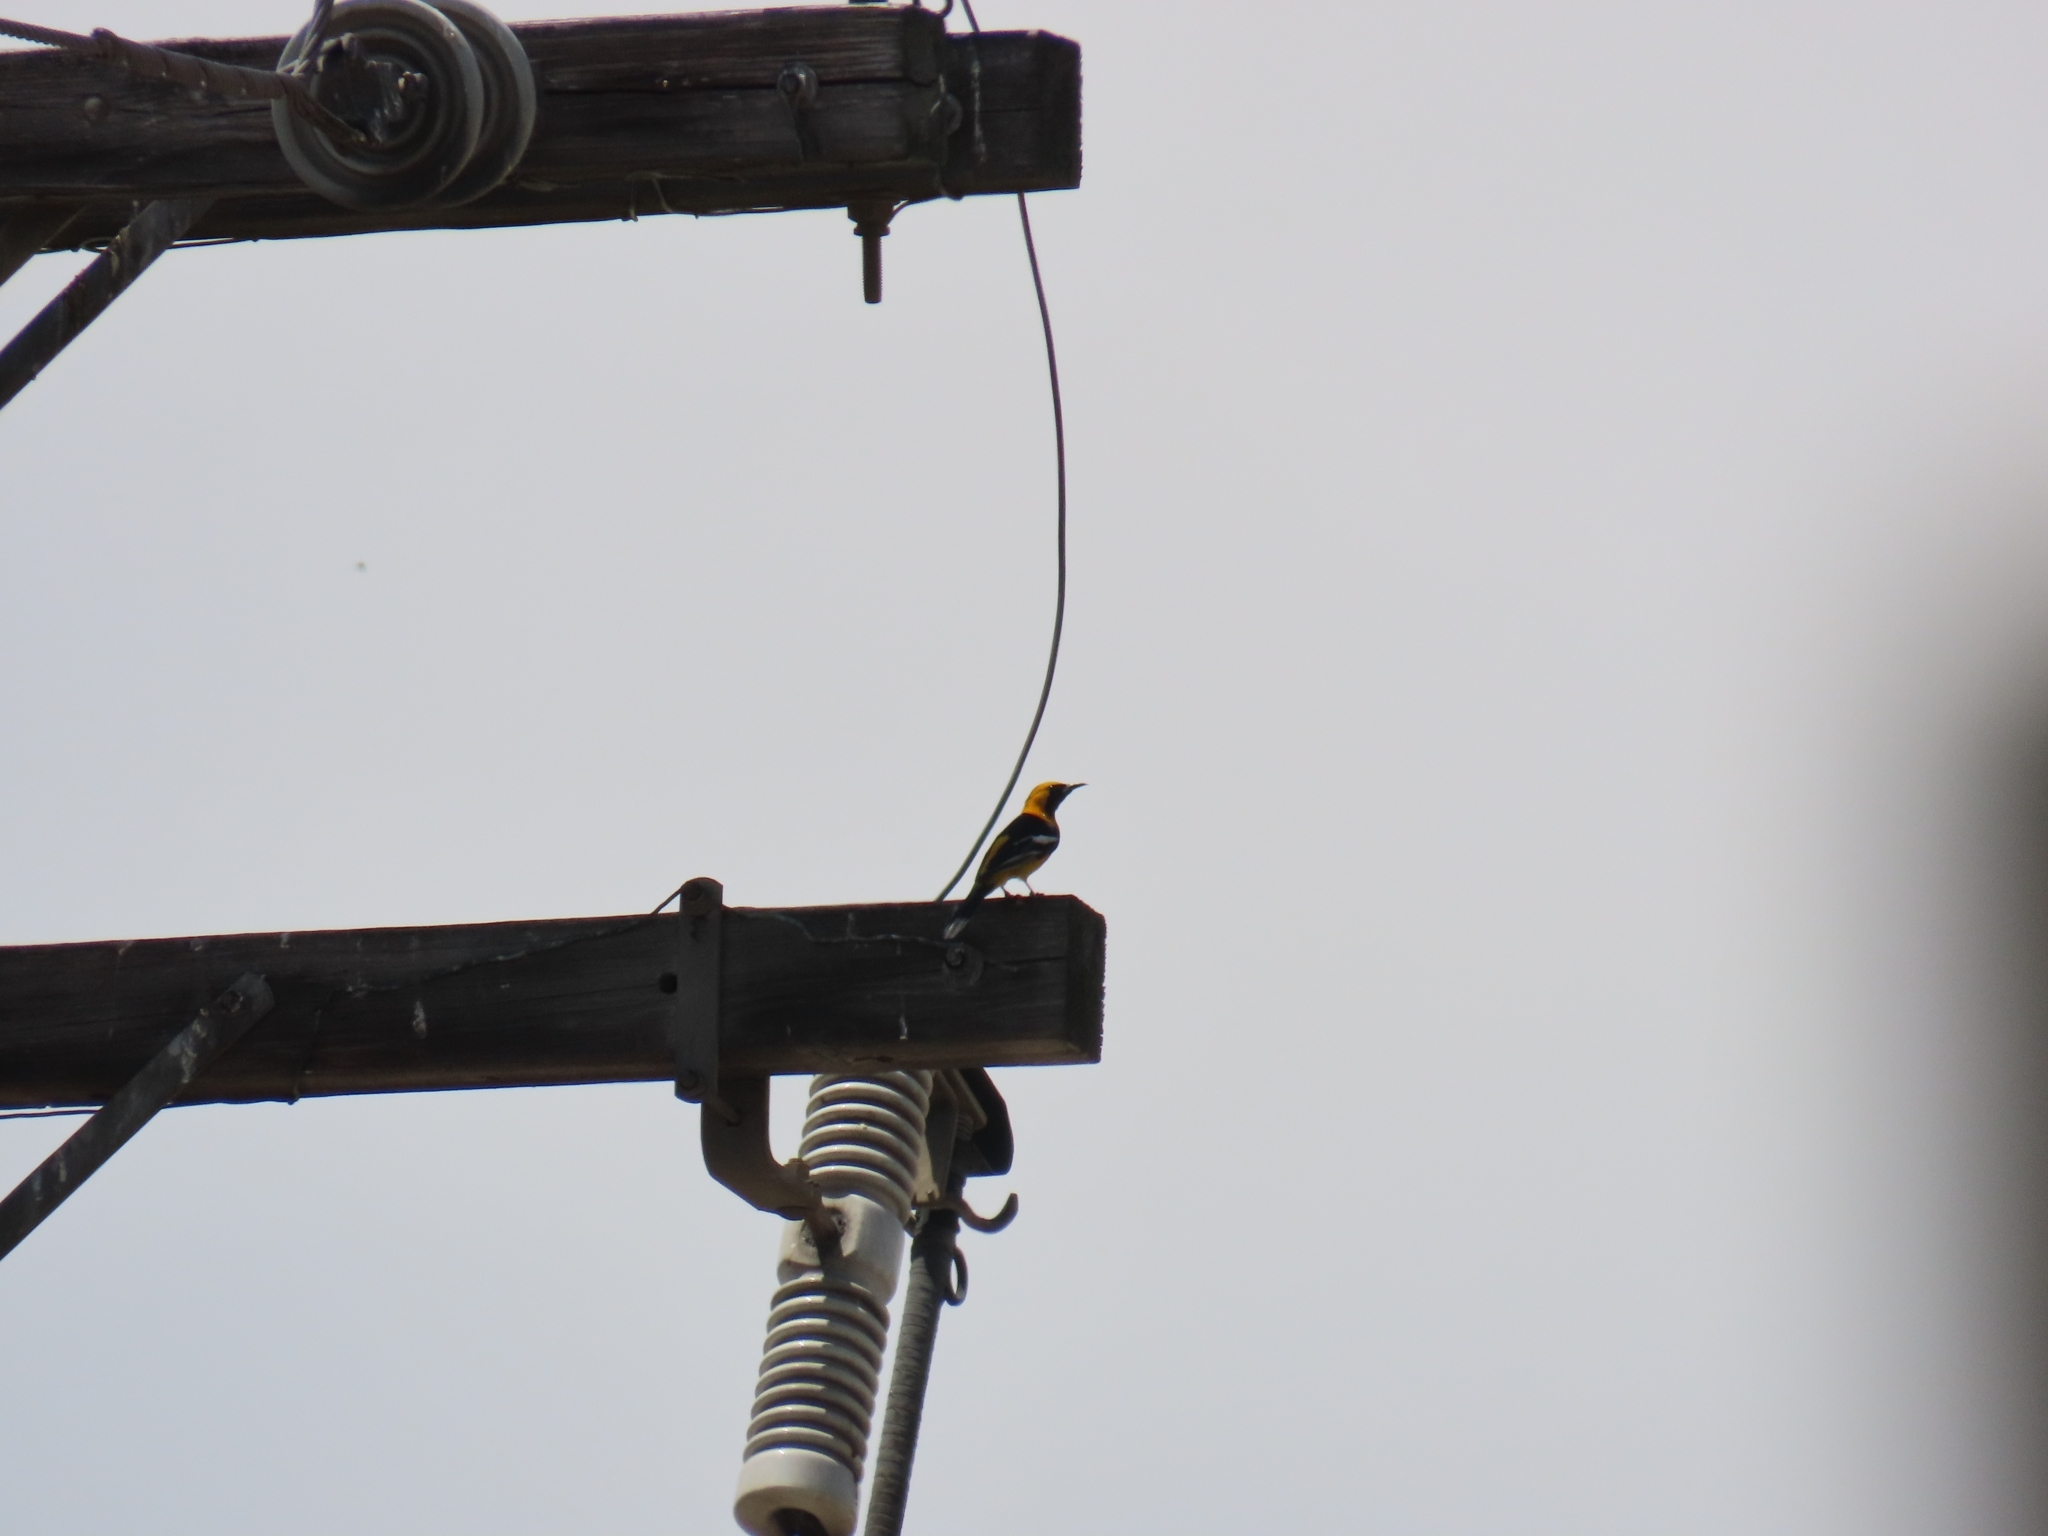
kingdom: Animalia
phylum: Chordata
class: Aves
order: Passeriformes
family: Icteridae
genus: Icterus
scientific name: Icterus cucullatus
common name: Hooded oriole
